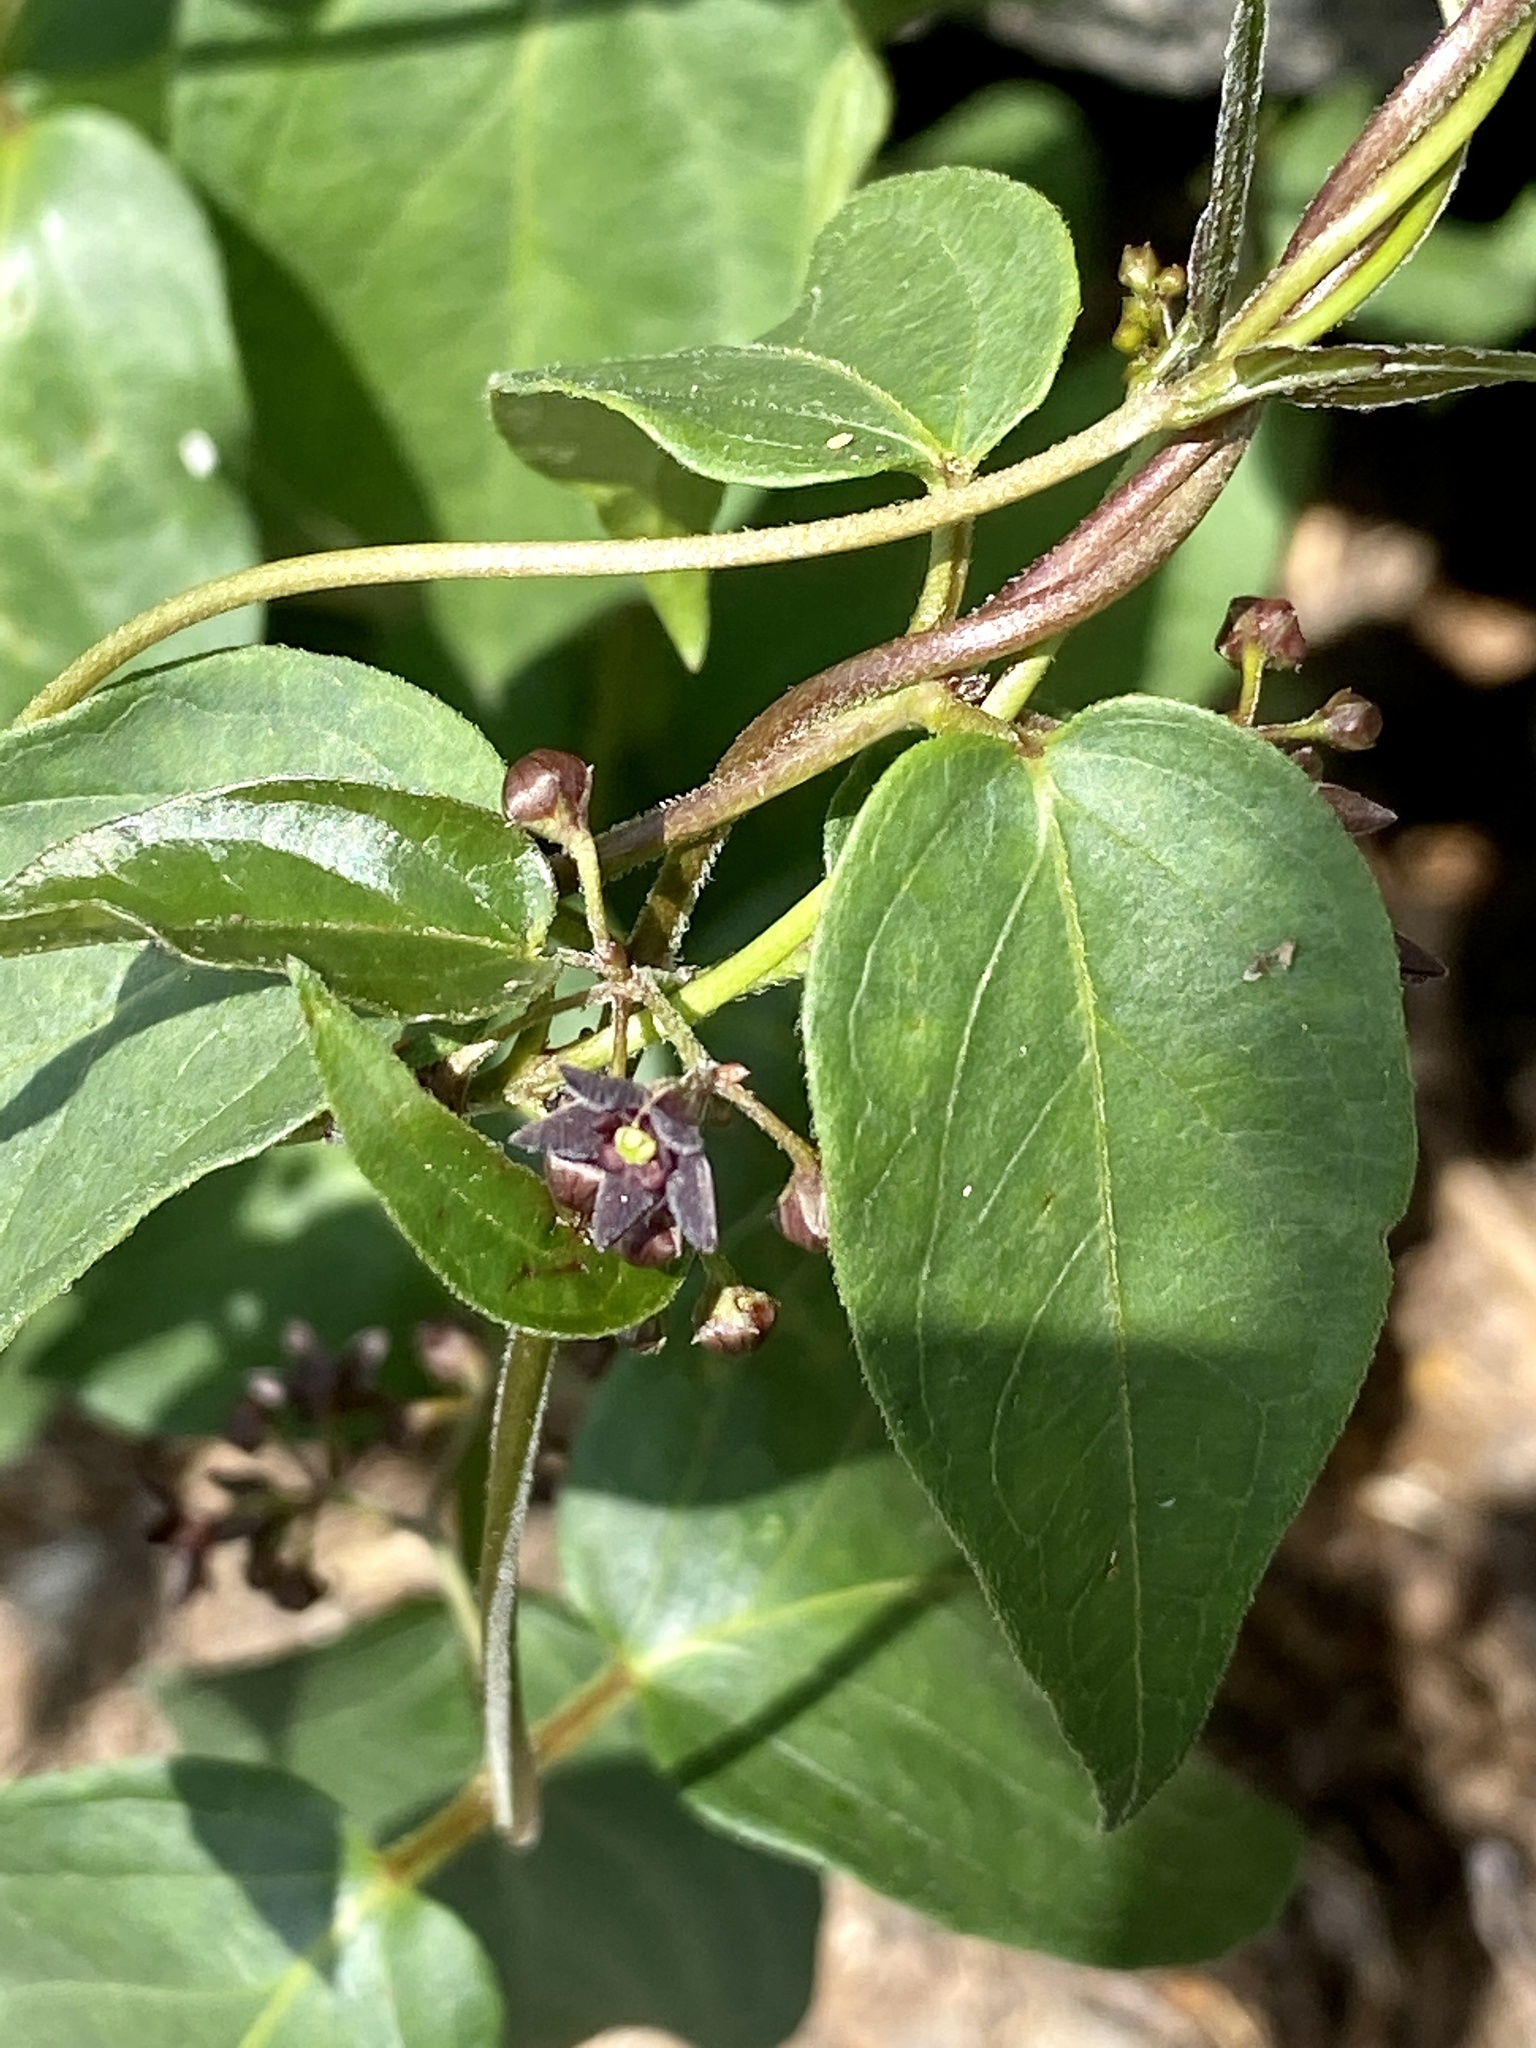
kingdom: Plantae
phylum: Tracheophyta
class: Magnoliopsida
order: Gentianales
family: Apocynaceae
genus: Vincetoxicum
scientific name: Vincetoxicum nigrum
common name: Black swallow-wort
